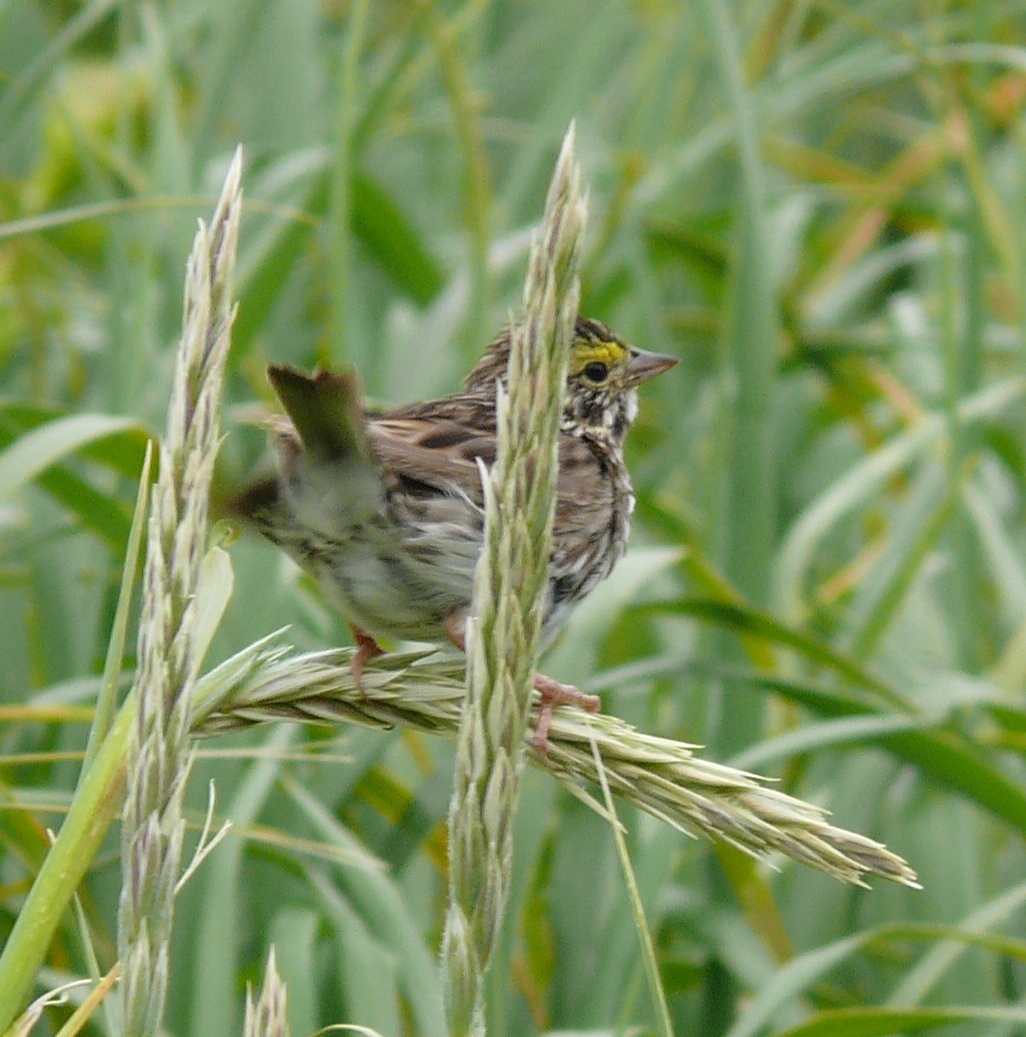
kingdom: Animalia
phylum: Chordata
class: Aves
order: Passeriformes
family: Passerellidae
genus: Passerculus
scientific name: Passerculus sandwichensis
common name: Savannah sparrow
